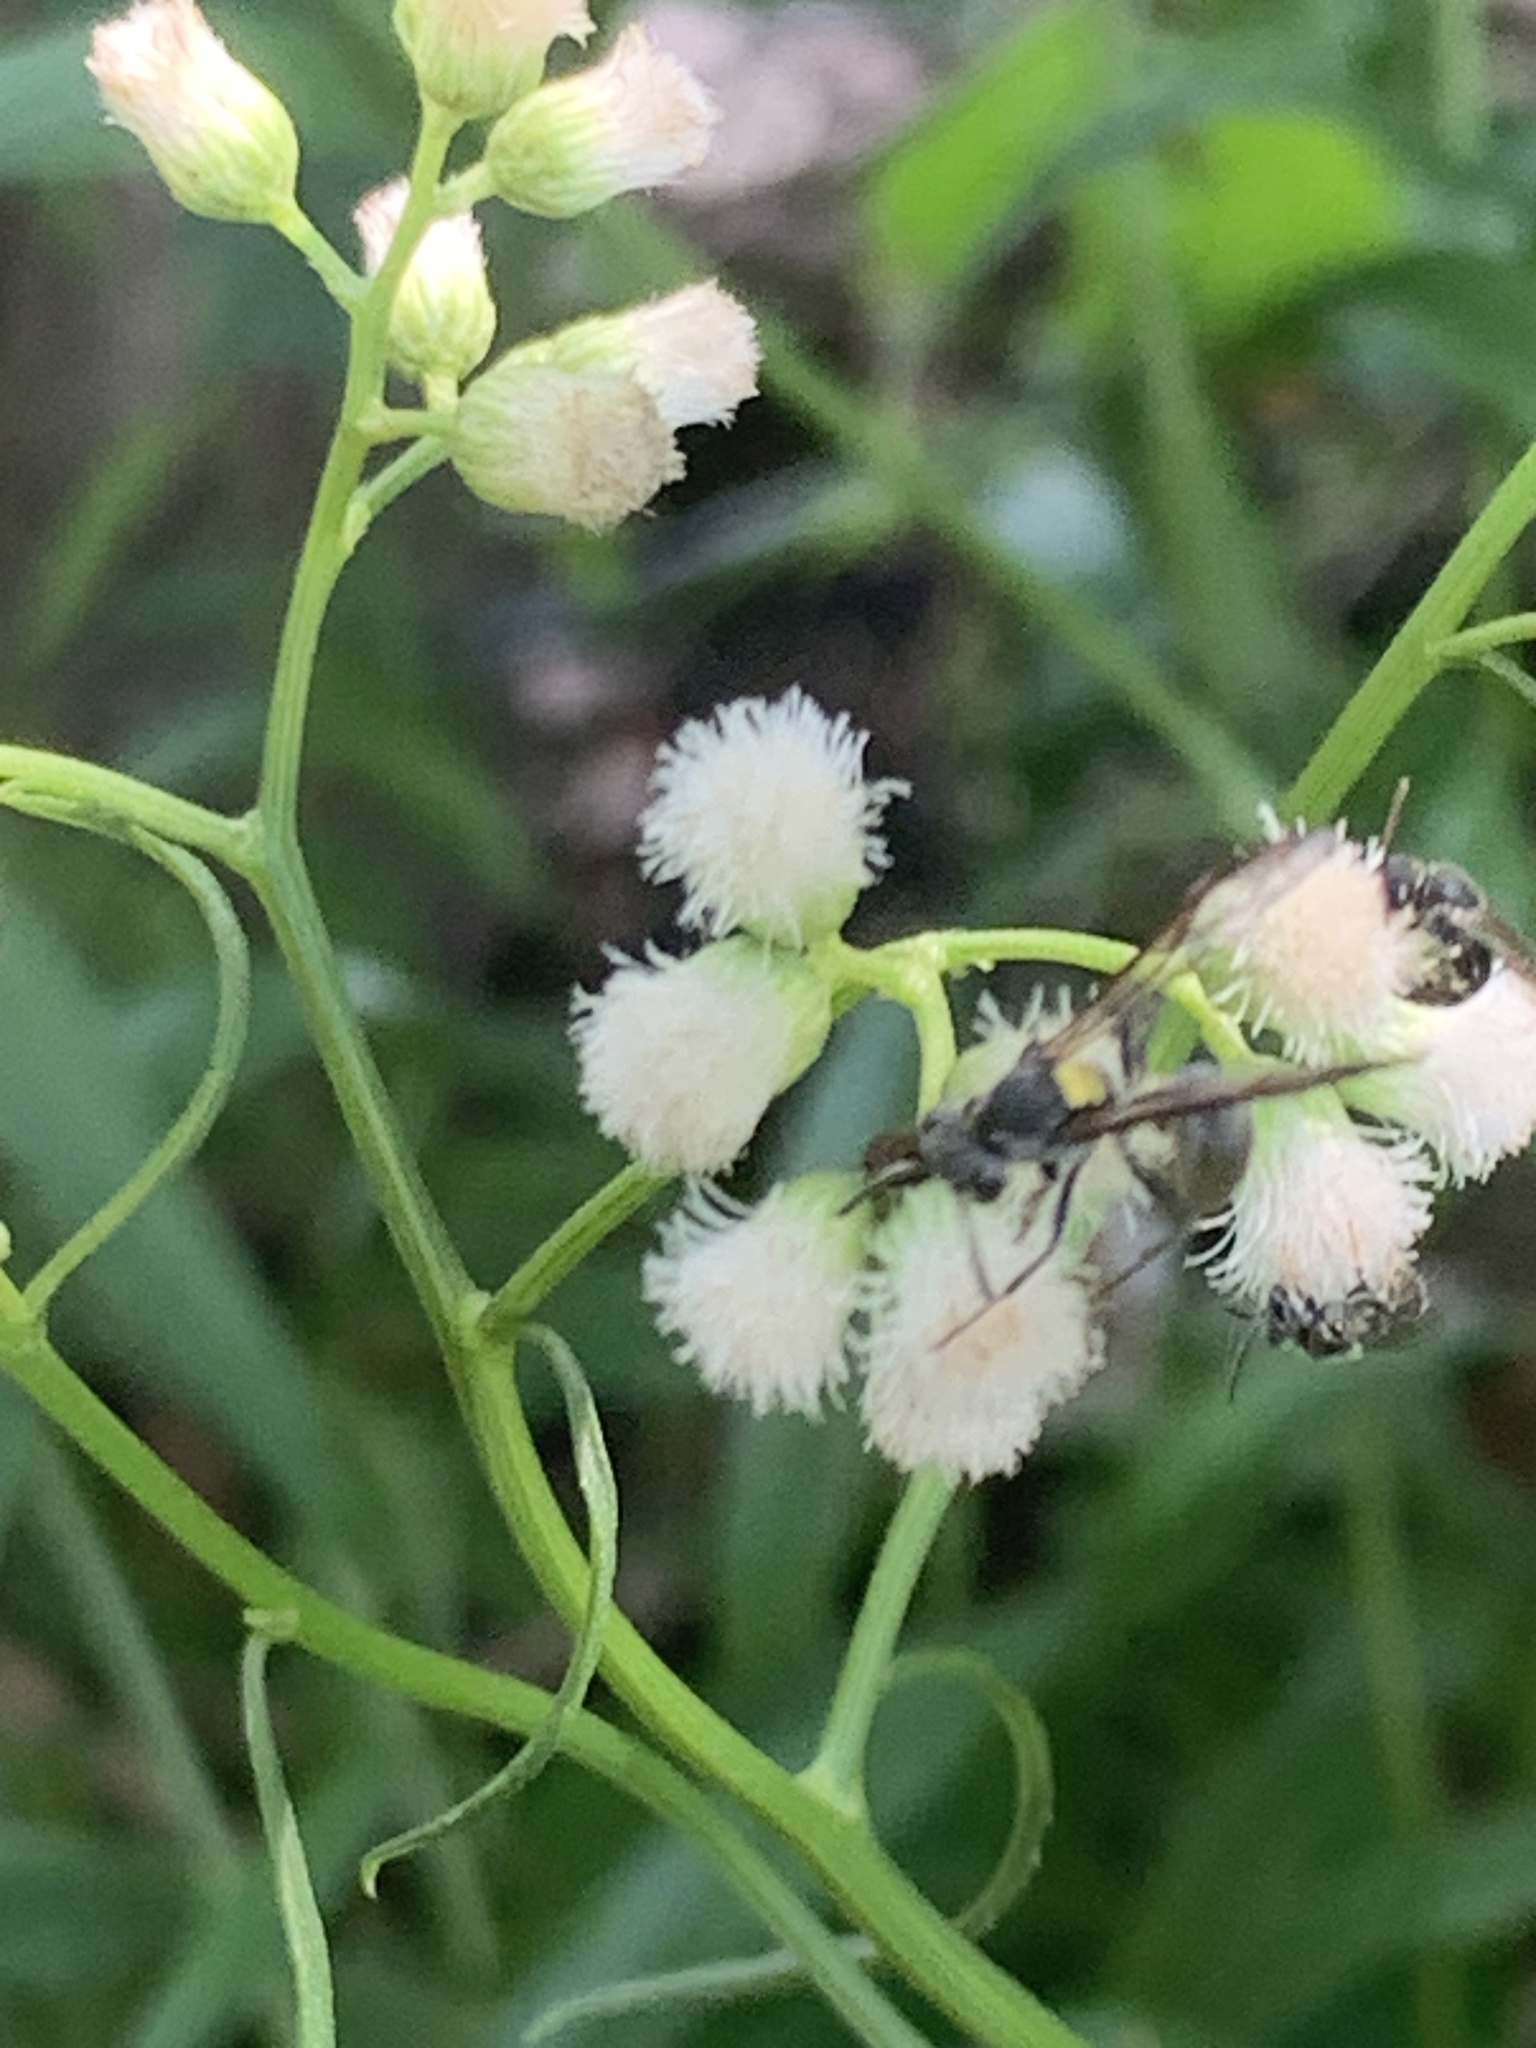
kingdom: Plantae
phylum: Tracheophyta
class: Magnoliopsida
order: Asterales
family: Asteraceae
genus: Baccharis
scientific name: Baccharis glutinosa
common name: Saltmarsh baccharis
